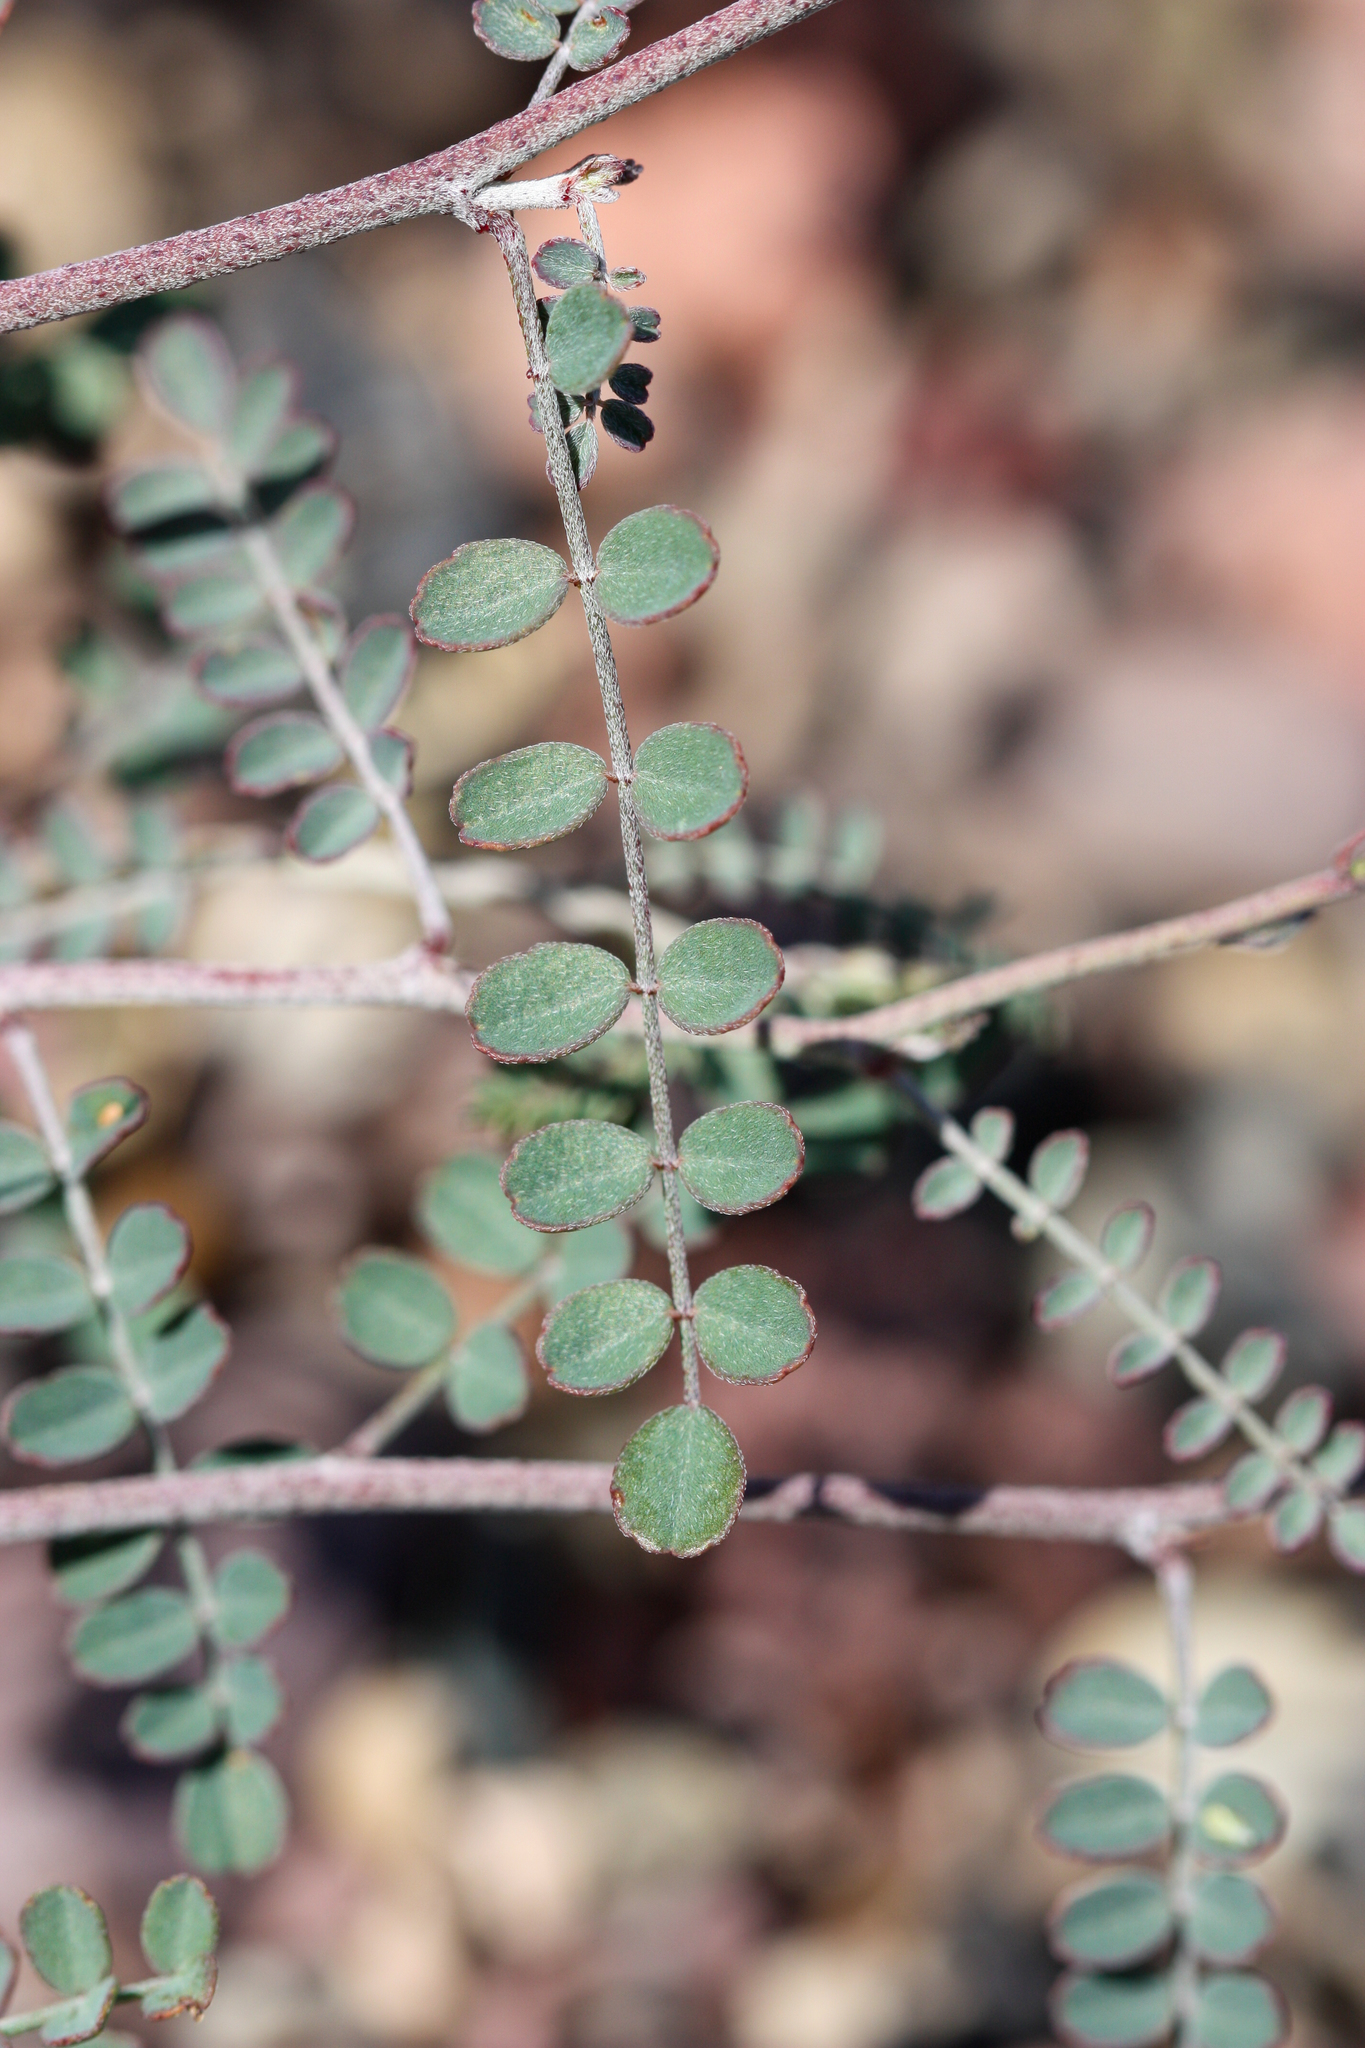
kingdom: Plantae
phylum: Tracheophyta
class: Magnoliopsida
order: Fabales
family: Fabaceae
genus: Marina
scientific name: Marina parryi
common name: Parry's marina
